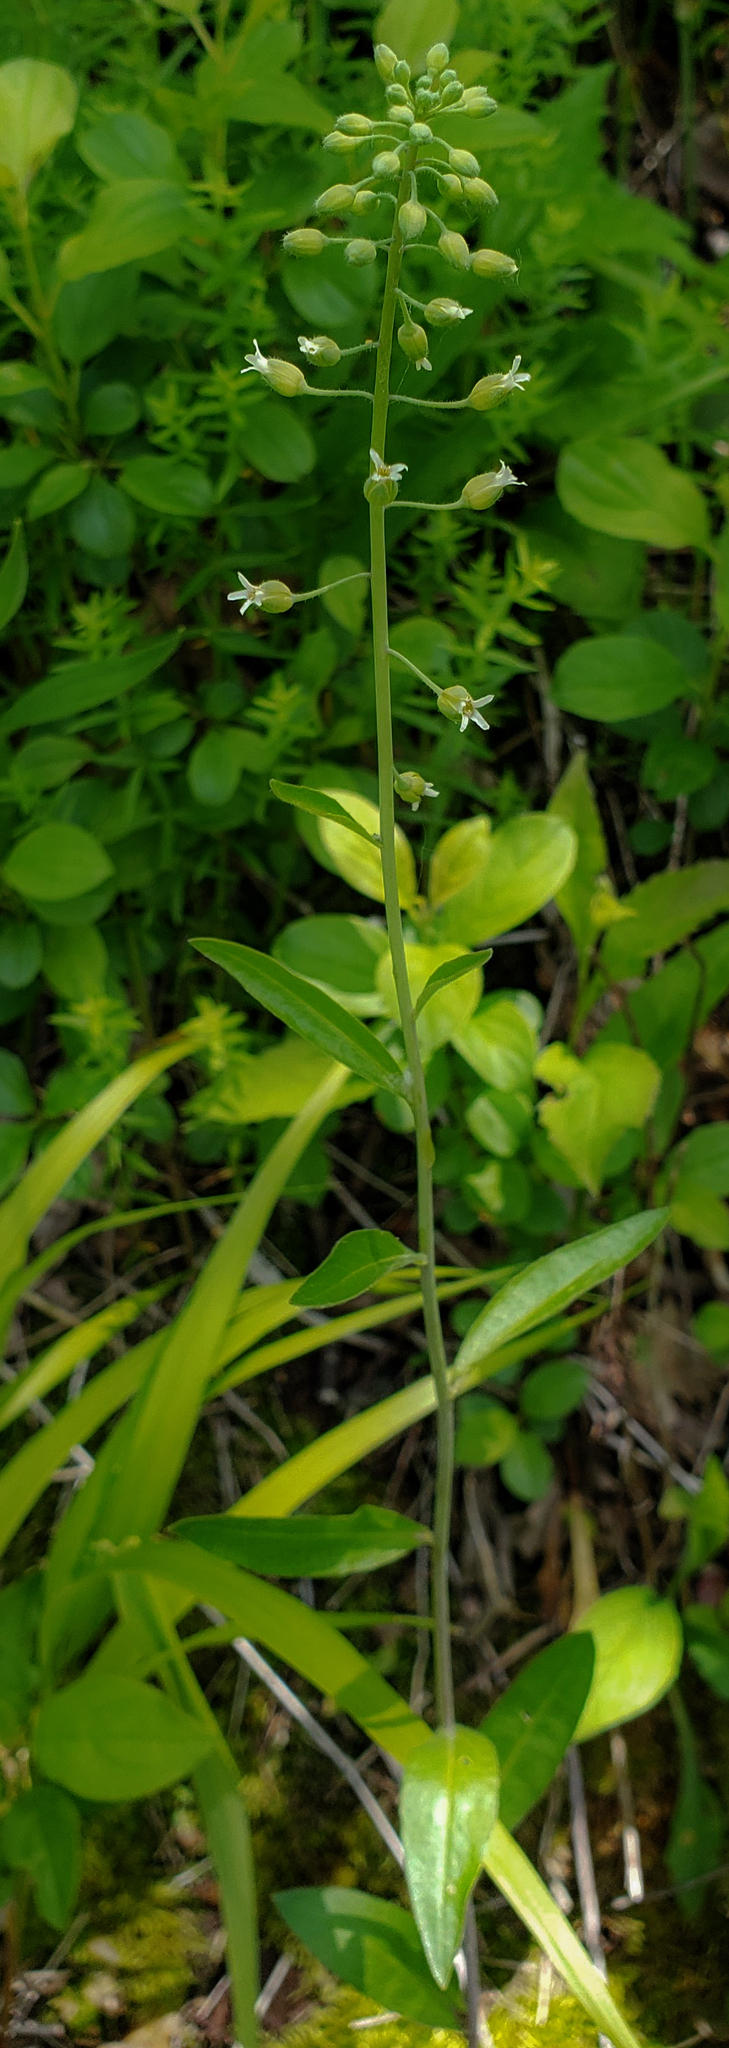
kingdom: Plantae
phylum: Tracheophyta
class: Magnoliopsida
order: Brassicales
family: Brassicaceae
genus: Borodinia
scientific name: Borodinia canadensis
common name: Sicklepod
